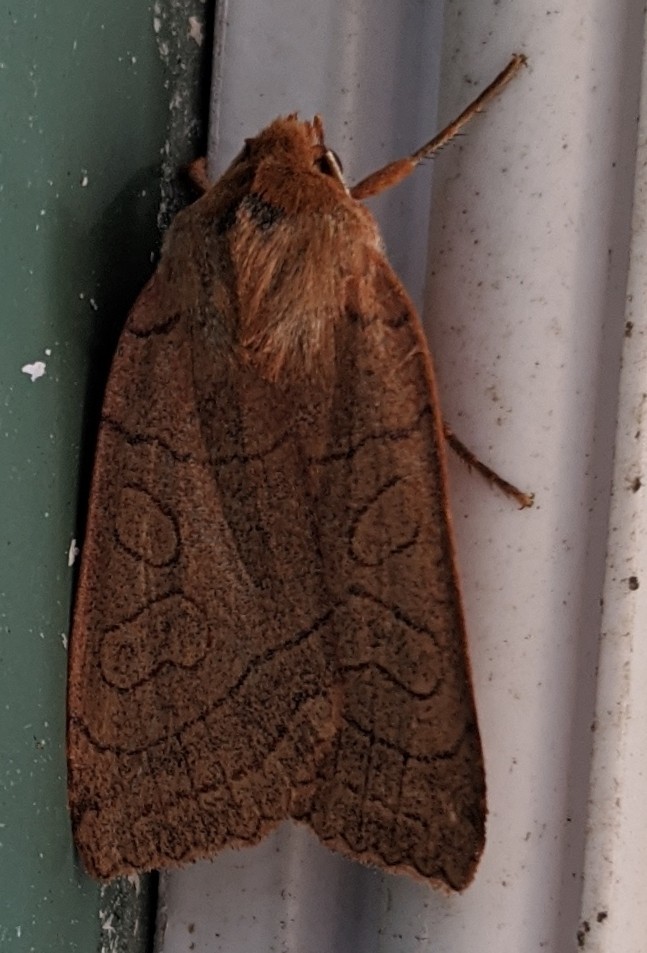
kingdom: Animalia
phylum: Arthropoda
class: Insecta
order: Lepidoptera
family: Noctuidae
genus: Metaxaglaea
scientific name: Metaxaglaea inulta
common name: Unsated sallow
